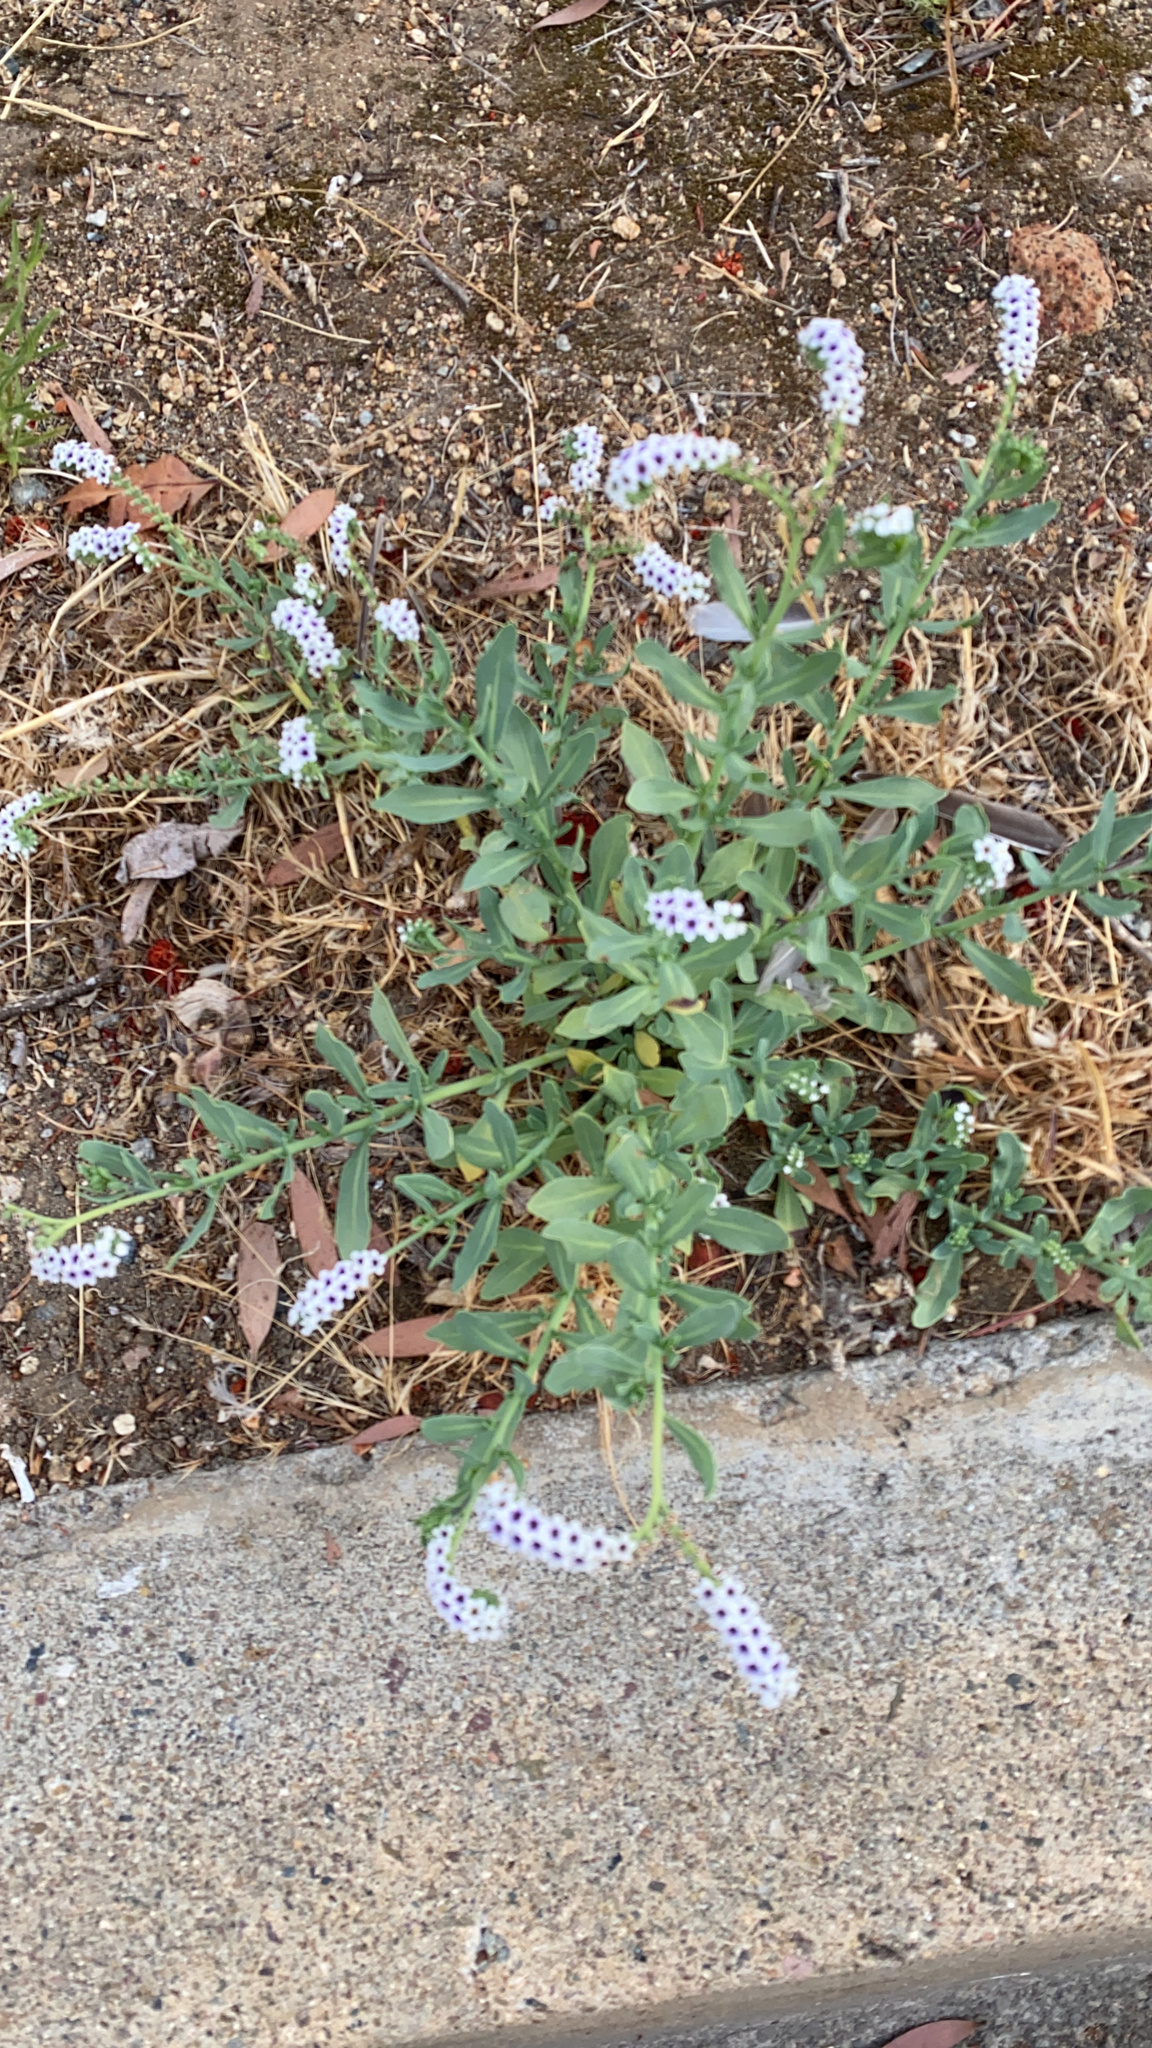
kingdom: Plantae
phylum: Tracheophyta
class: Magnoliopsida
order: Boraginales
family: Heliotropiaceae
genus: Heliotropium
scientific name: Heliotropium curassavicum
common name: Seaside heliotrope
